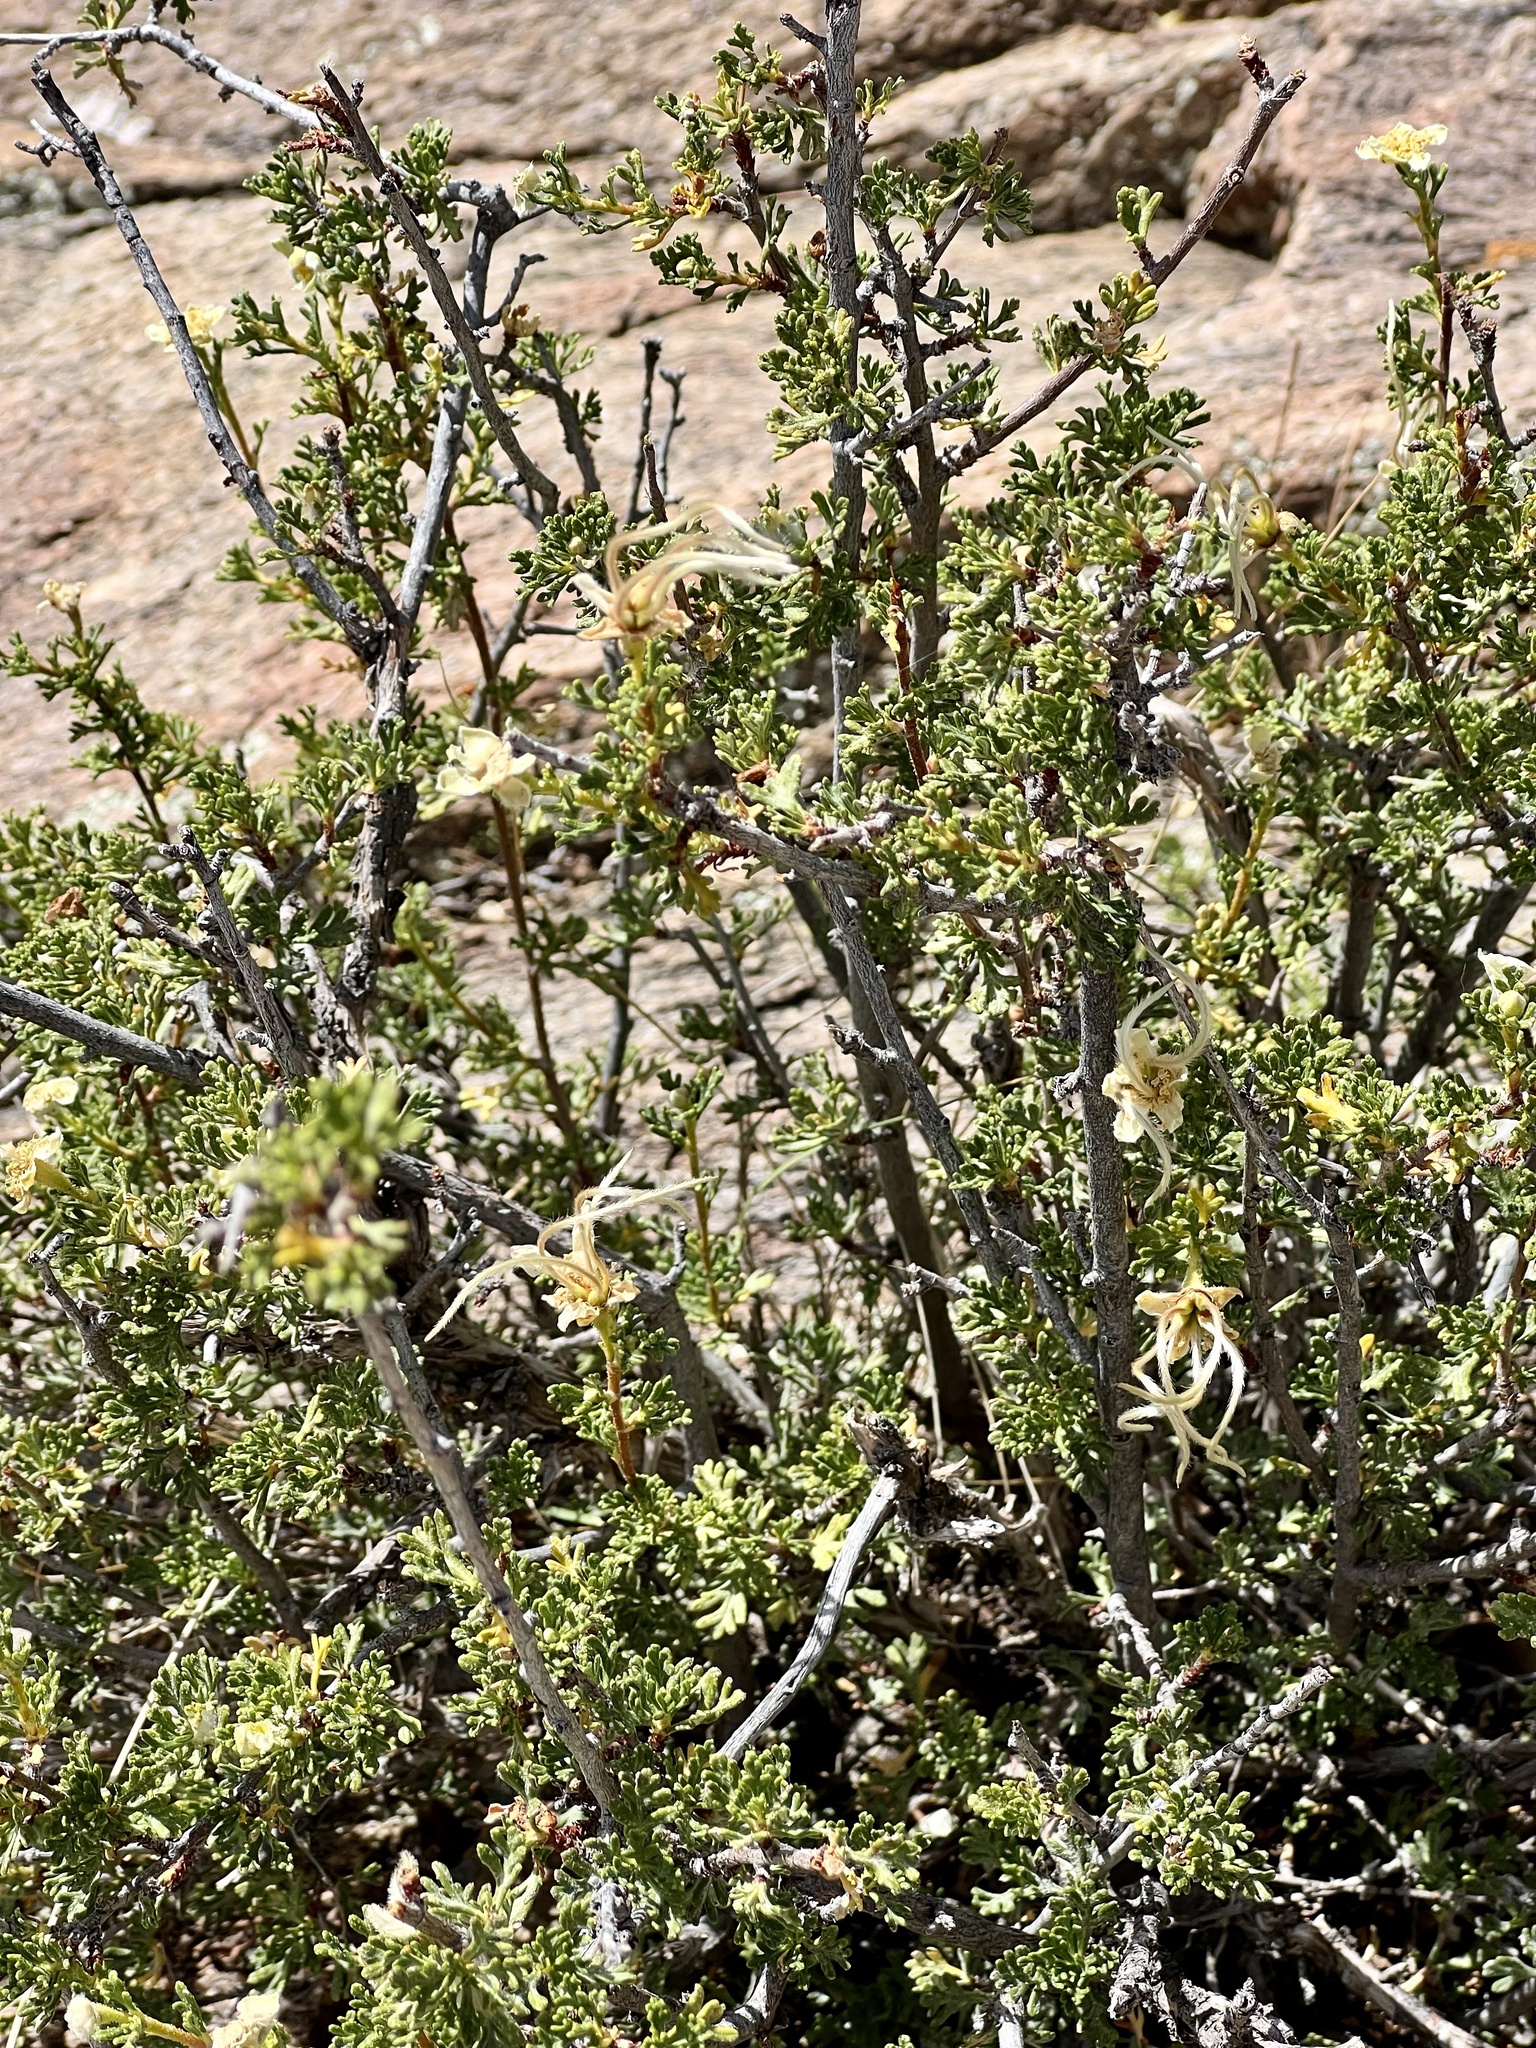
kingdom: Plantae
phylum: Tracheophyta
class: Magnoliopsida
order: Rosales
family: Rosaceae
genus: Purshia
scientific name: Purshia stansburiana
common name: Stansbury's cliffrose
